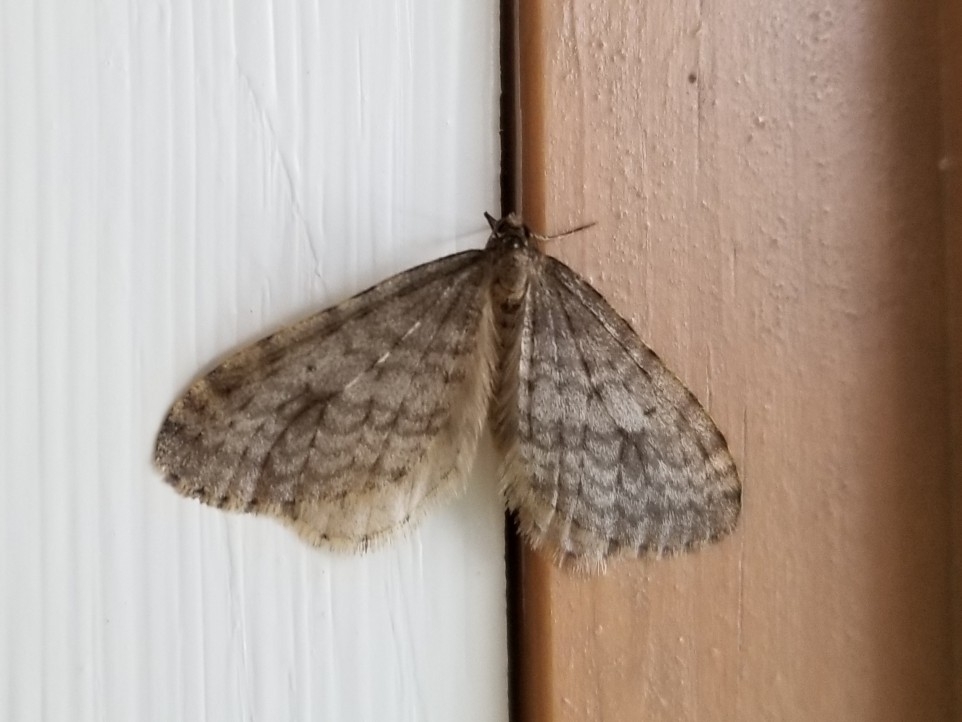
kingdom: Animalia
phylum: Arthropoda
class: Insecta
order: Lepidoptera
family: Geometridae
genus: Operophtera
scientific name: Operophtera bruceata
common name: Bruce spanworm
